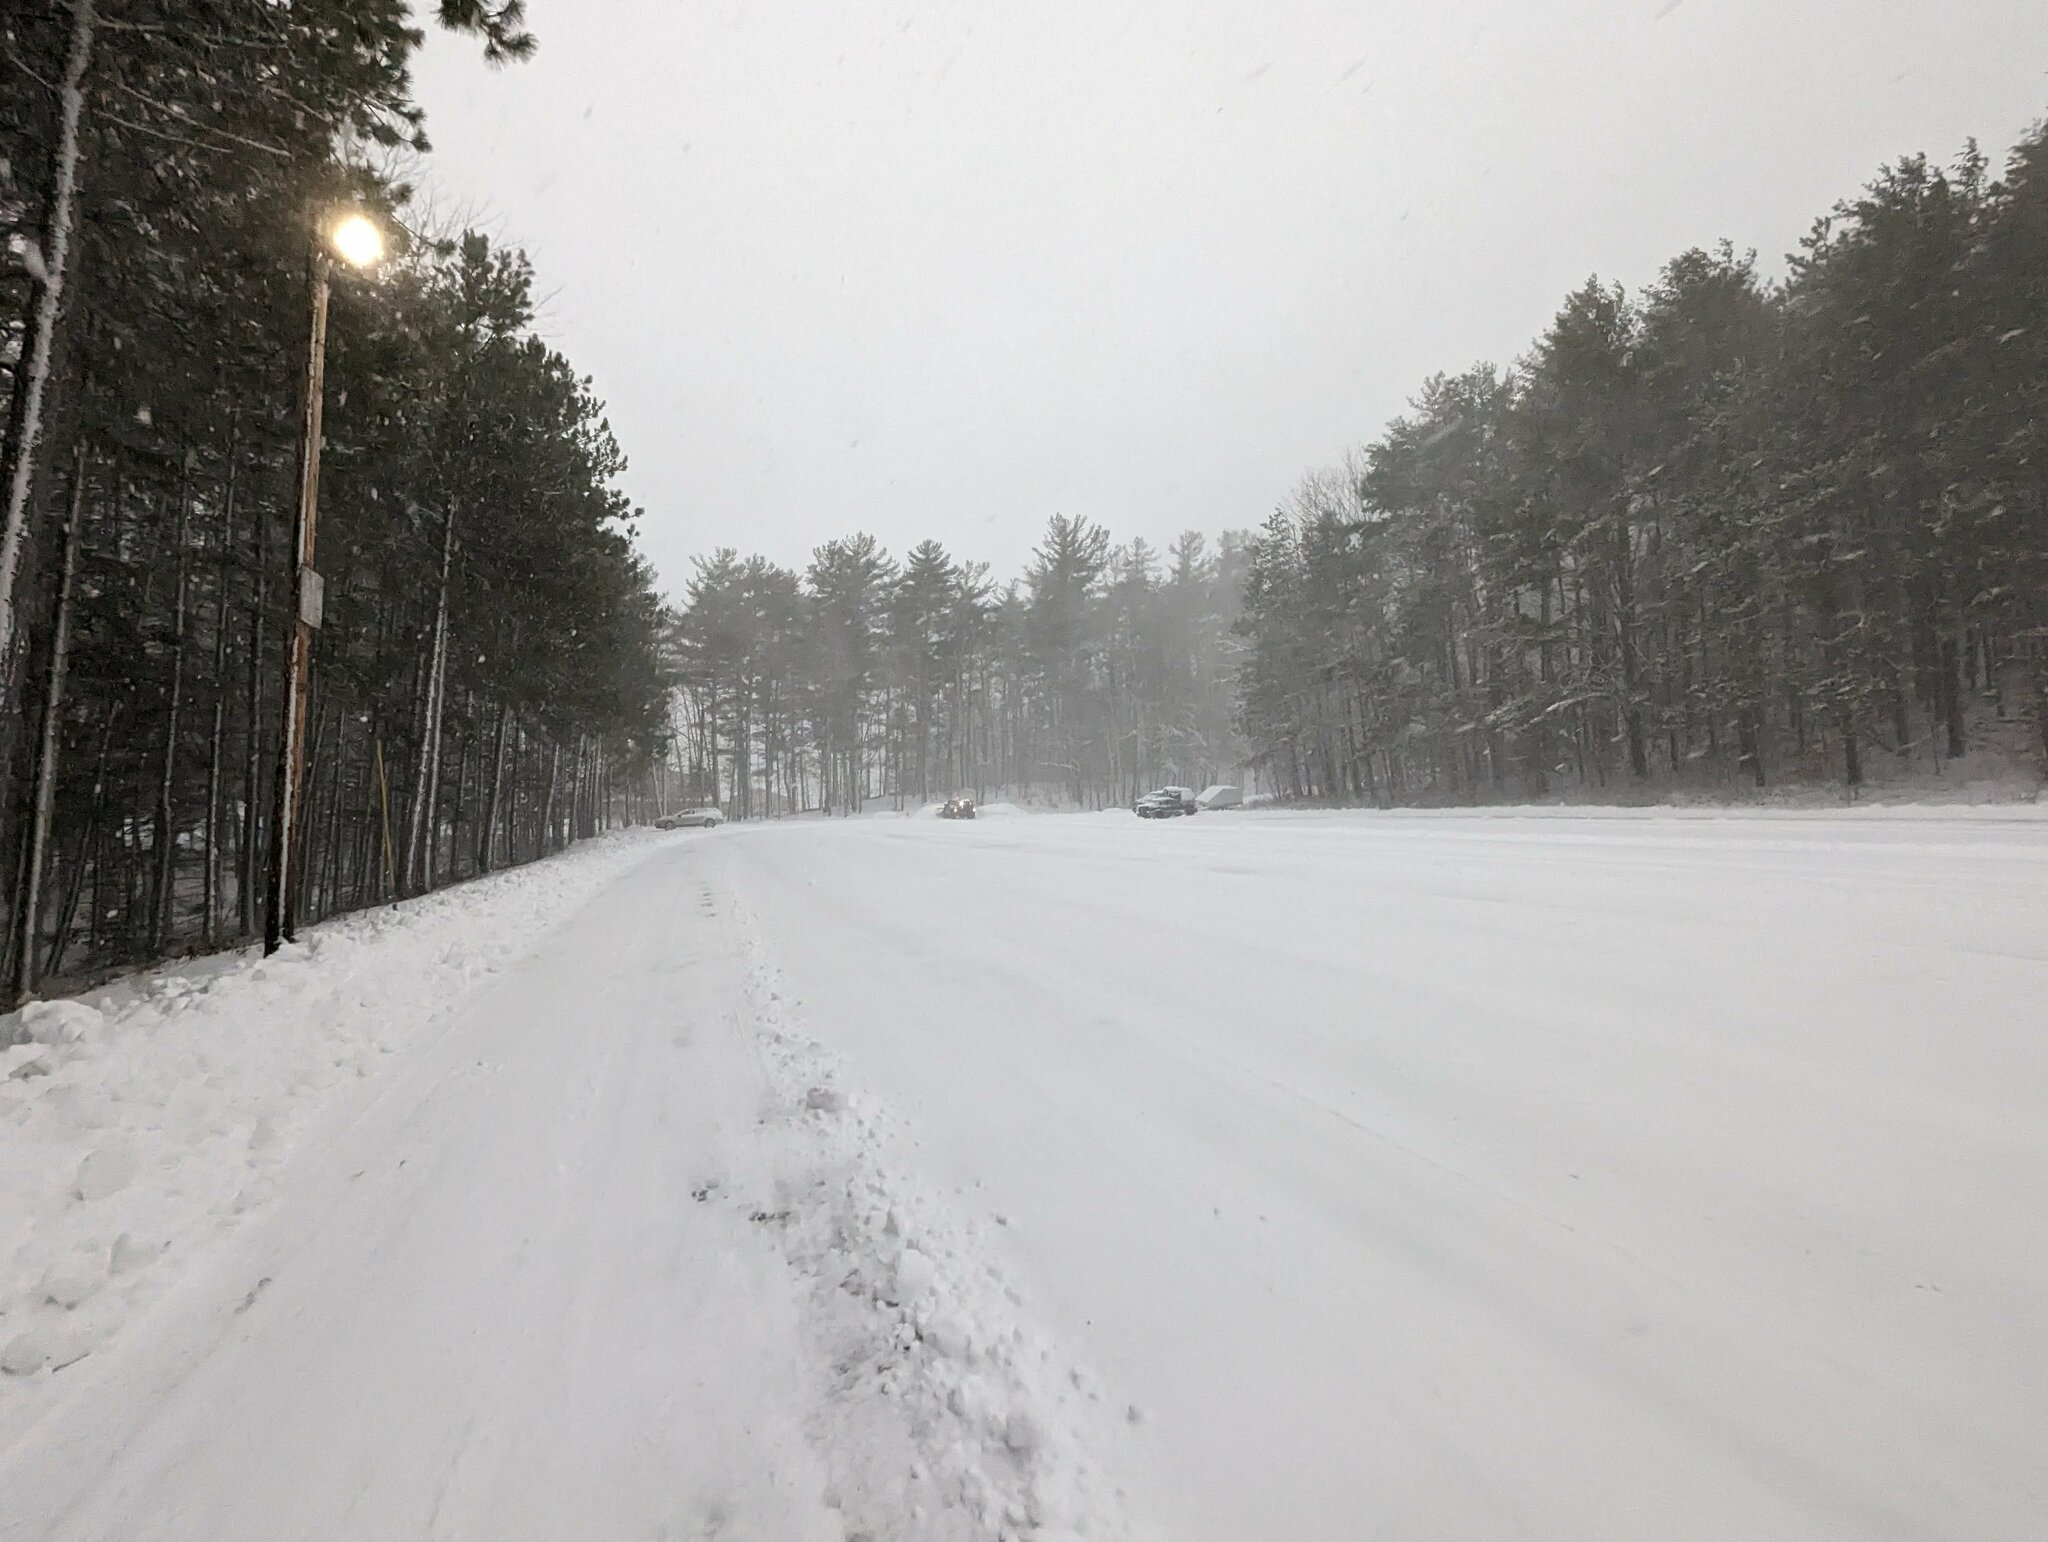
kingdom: Plantae
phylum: Tracheophyta
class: Pinopsida
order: Pinales
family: Pinaceae
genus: Pinus
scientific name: Pinus strobus
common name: Weymouth pine
